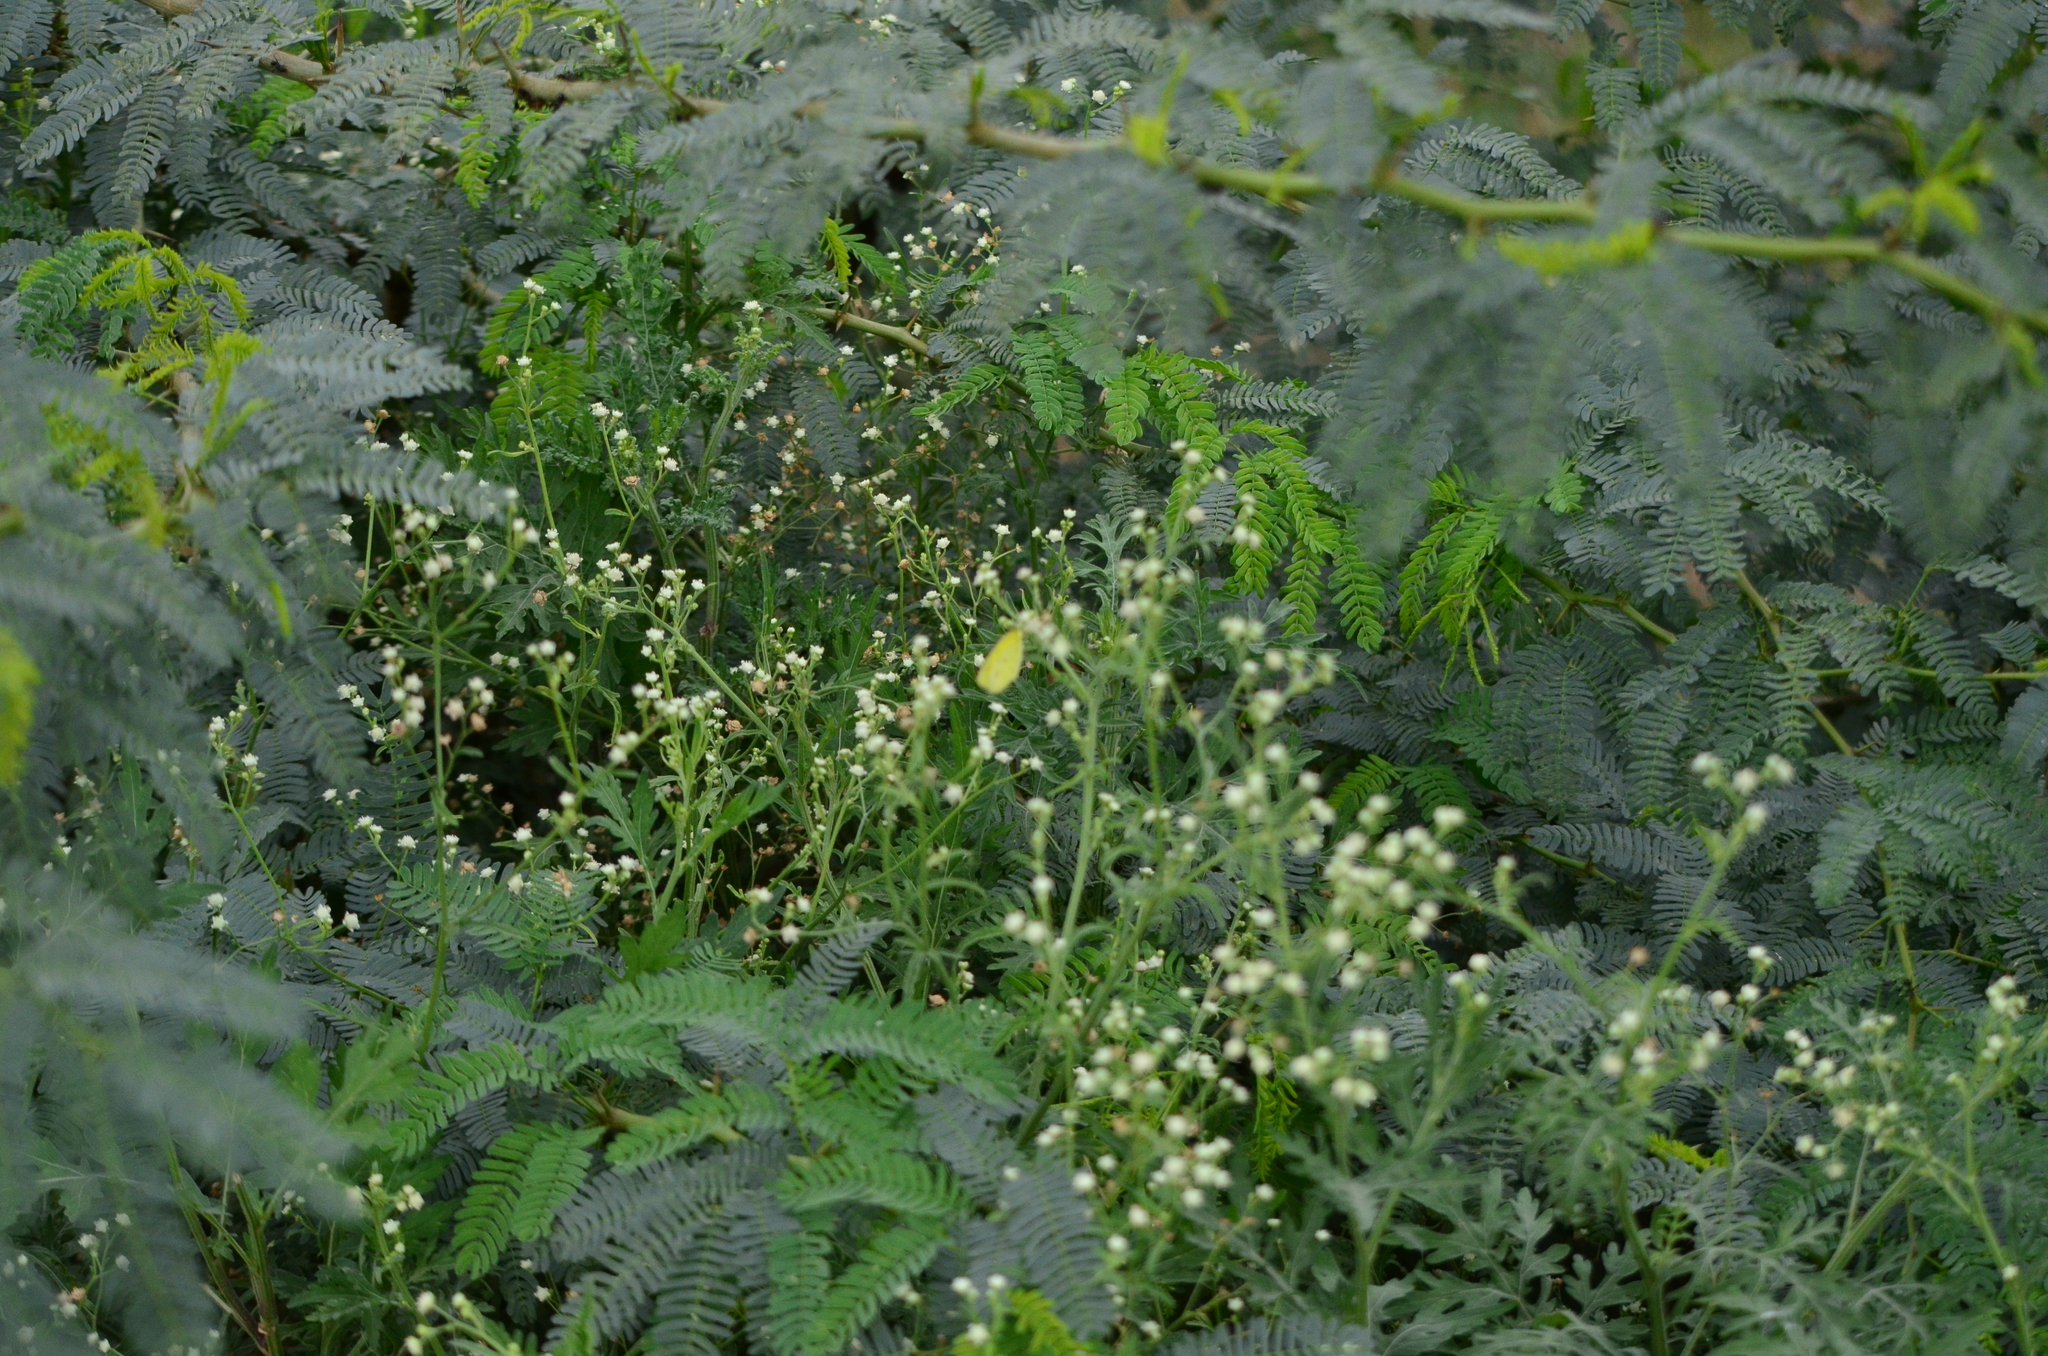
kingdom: Plantae
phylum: Tracheophyta
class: Magnoliopsida
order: Asterales
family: Asteraceae
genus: Parthenium
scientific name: Parthenium hysterophorus
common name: Santa maria feverfew
